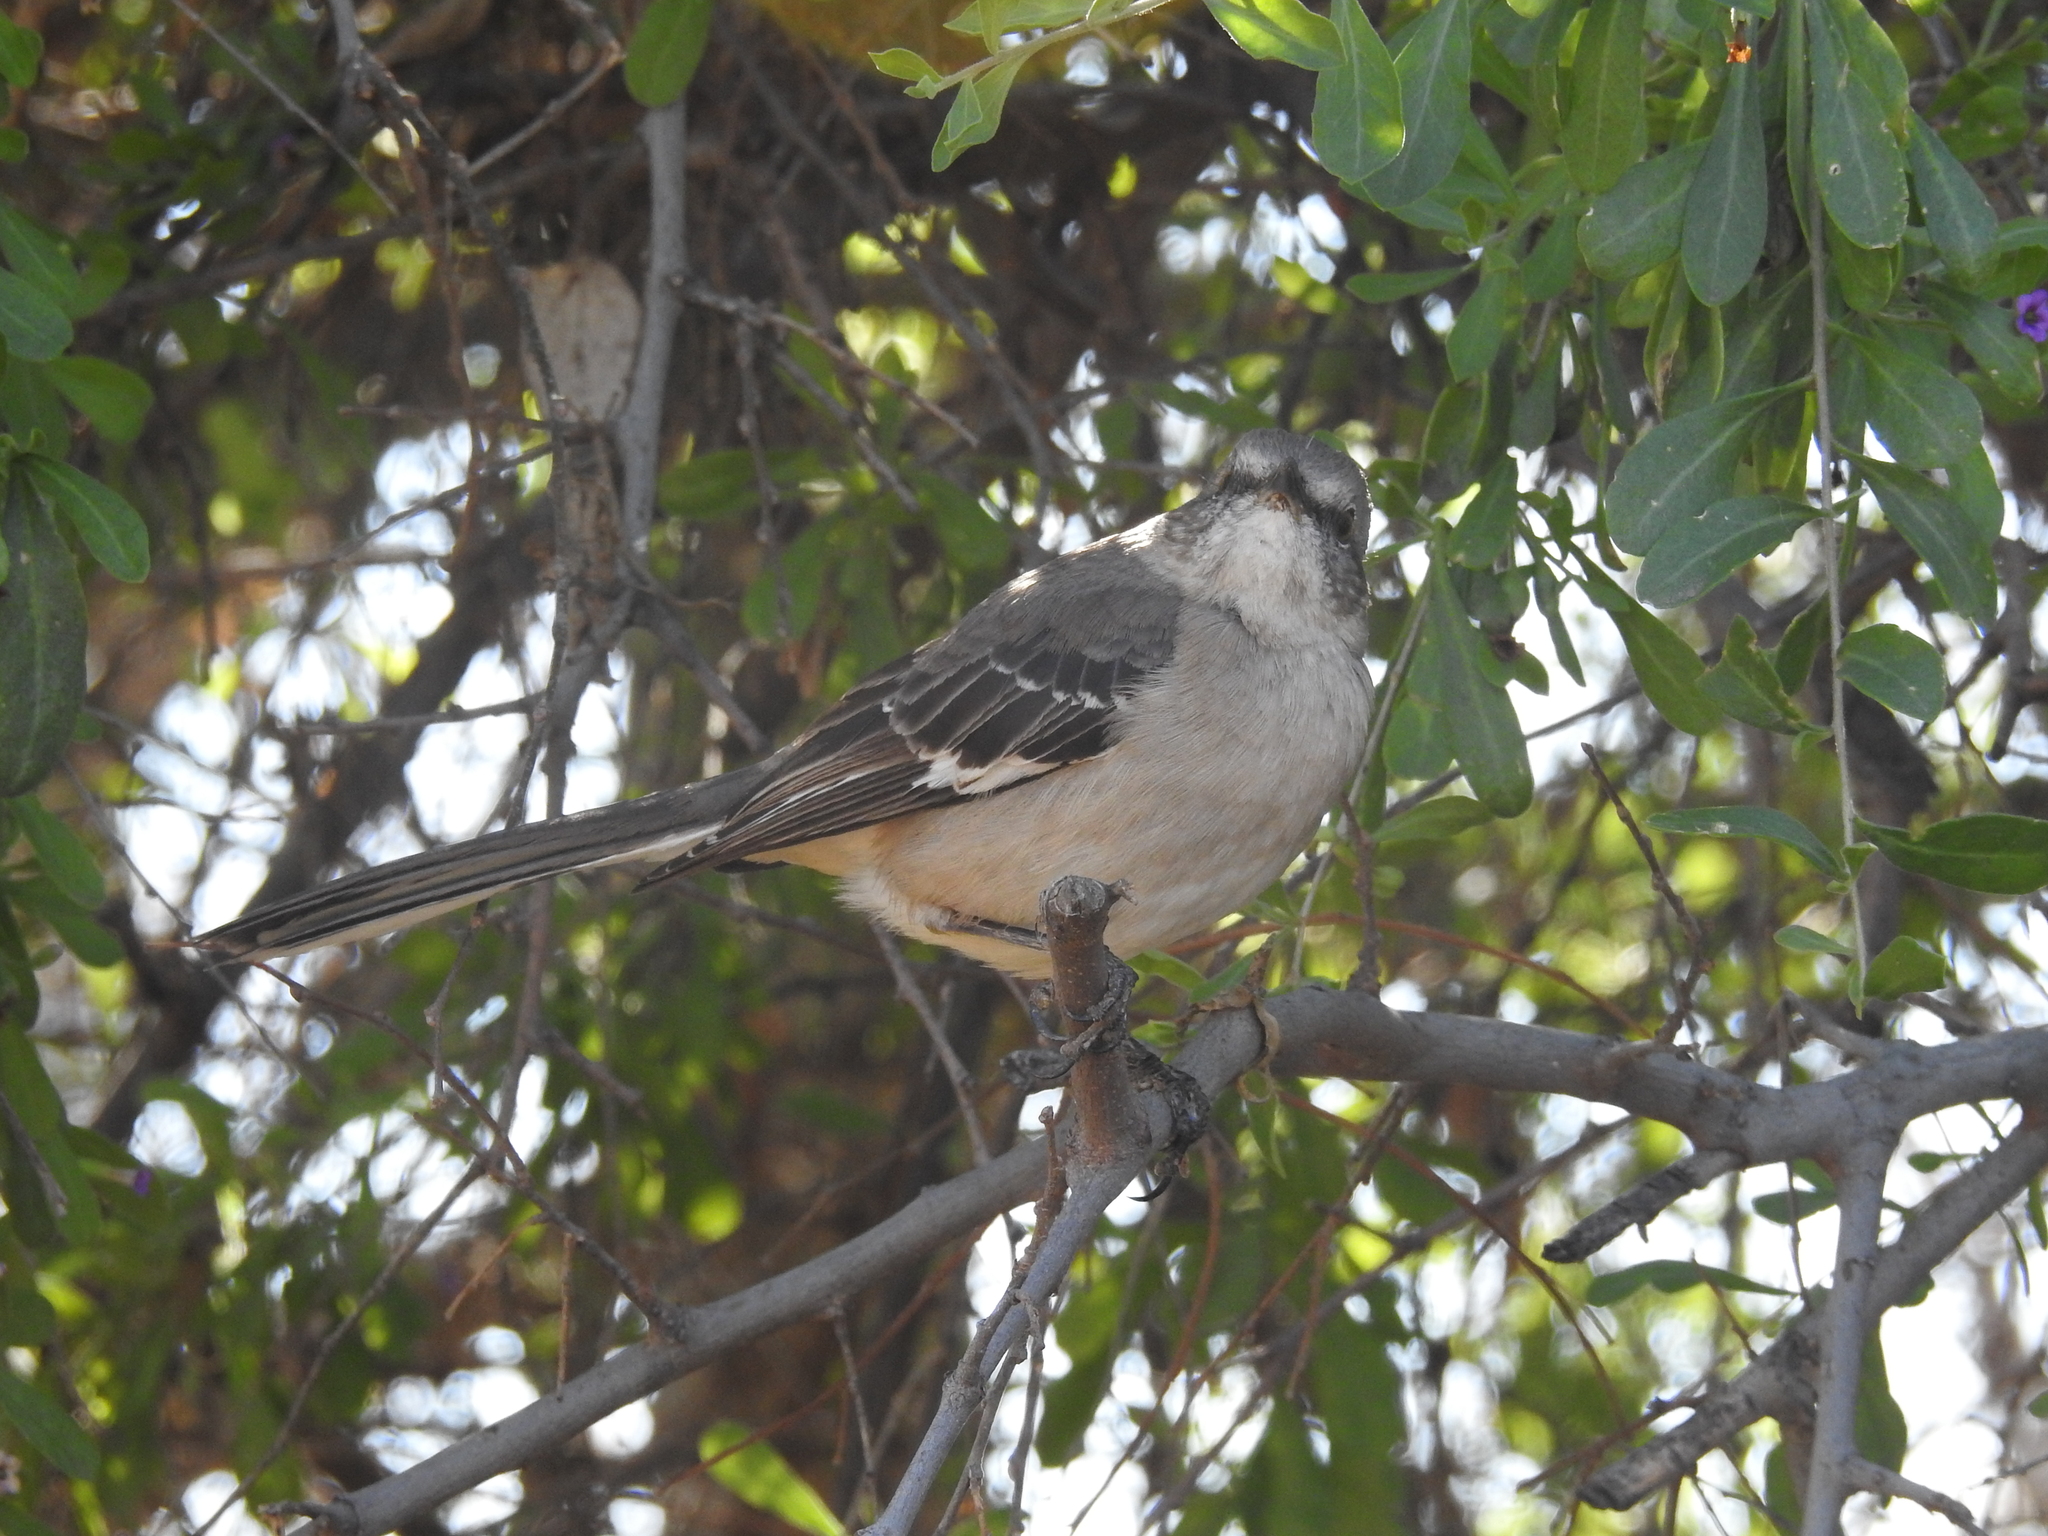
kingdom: Animalia
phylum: Chordata
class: Aves
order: Passeriformes
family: Mimidae
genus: Mimus
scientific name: Mimus polyglottos
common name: Northern mockingbird
